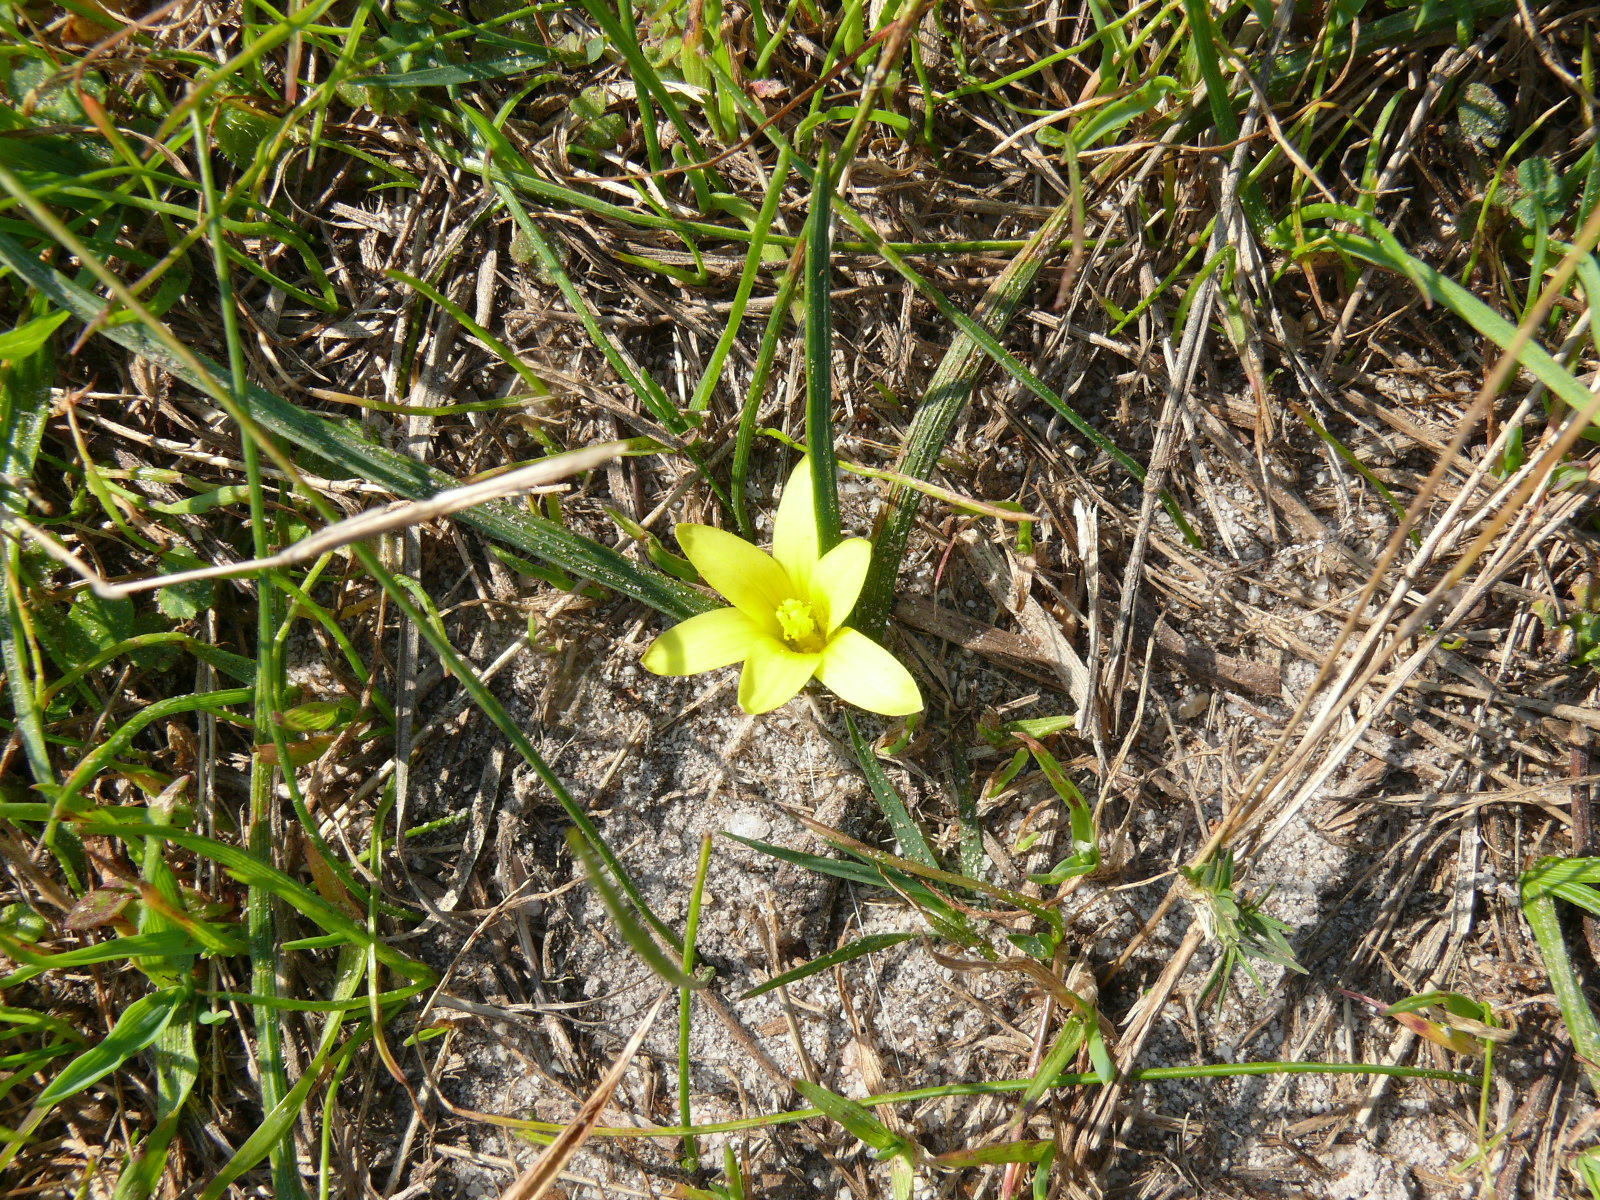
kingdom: Plantae
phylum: Tracheophyta
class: Liliopsida
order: Asparagales
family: Iridaceae
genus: Romulea
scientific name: Romulea flava
